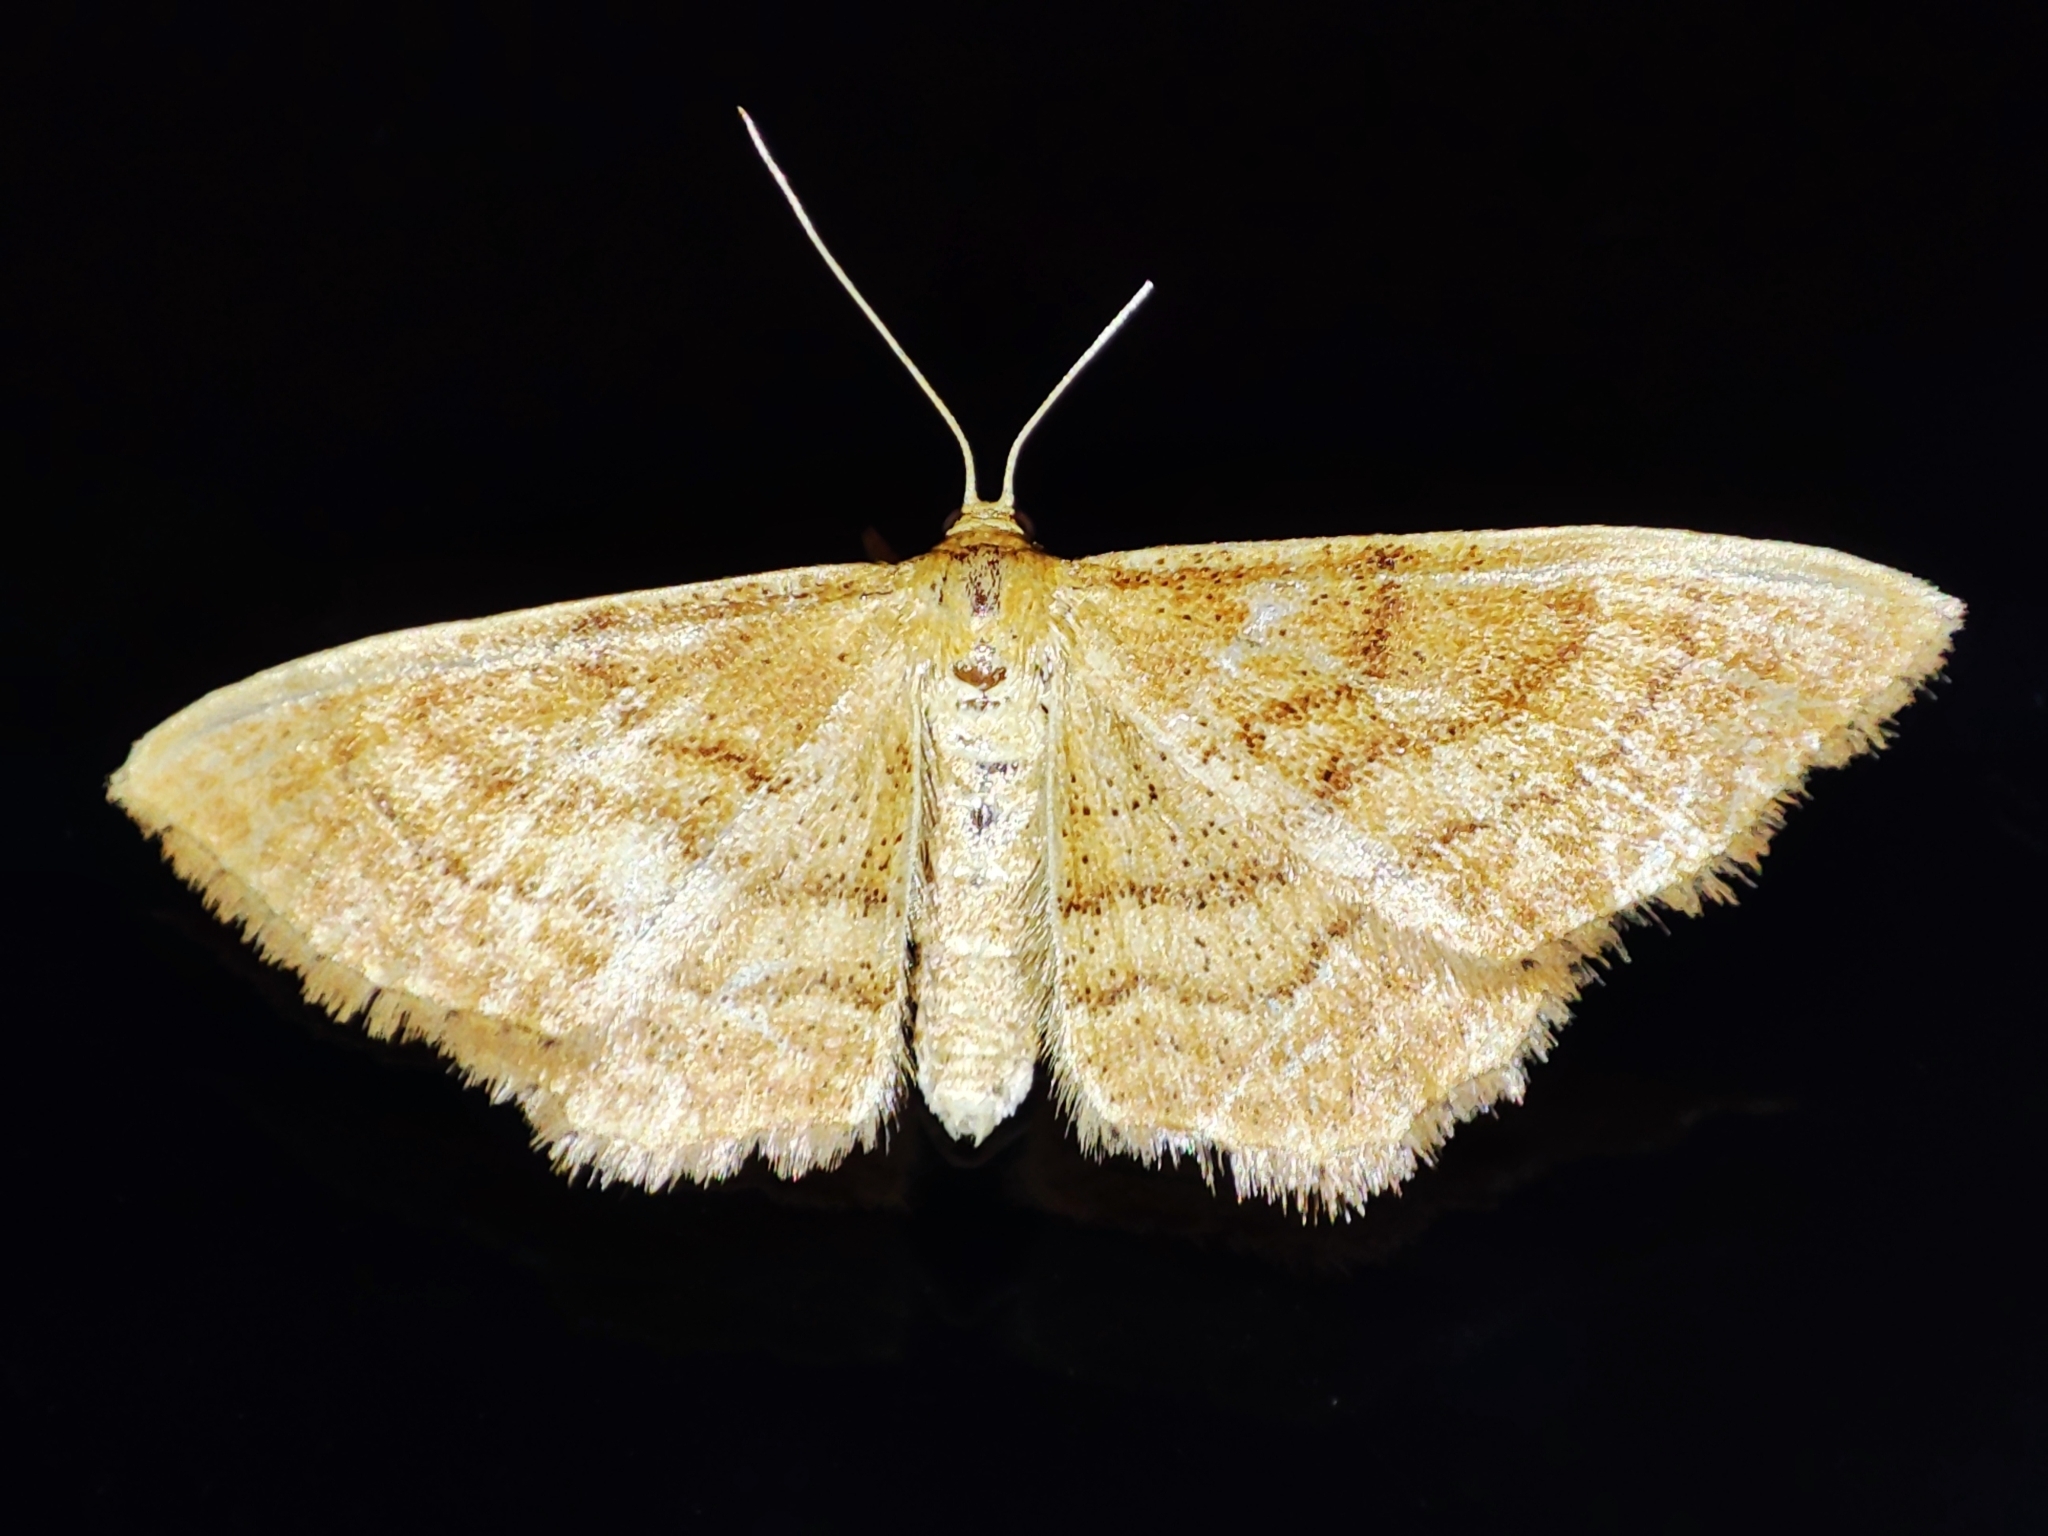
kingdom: Animalia
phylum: Arthropoda
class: Insecta
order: Lepidoptera
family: Geometridae
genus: Idaea
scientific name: Idaea ochrata
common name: Bright wave
